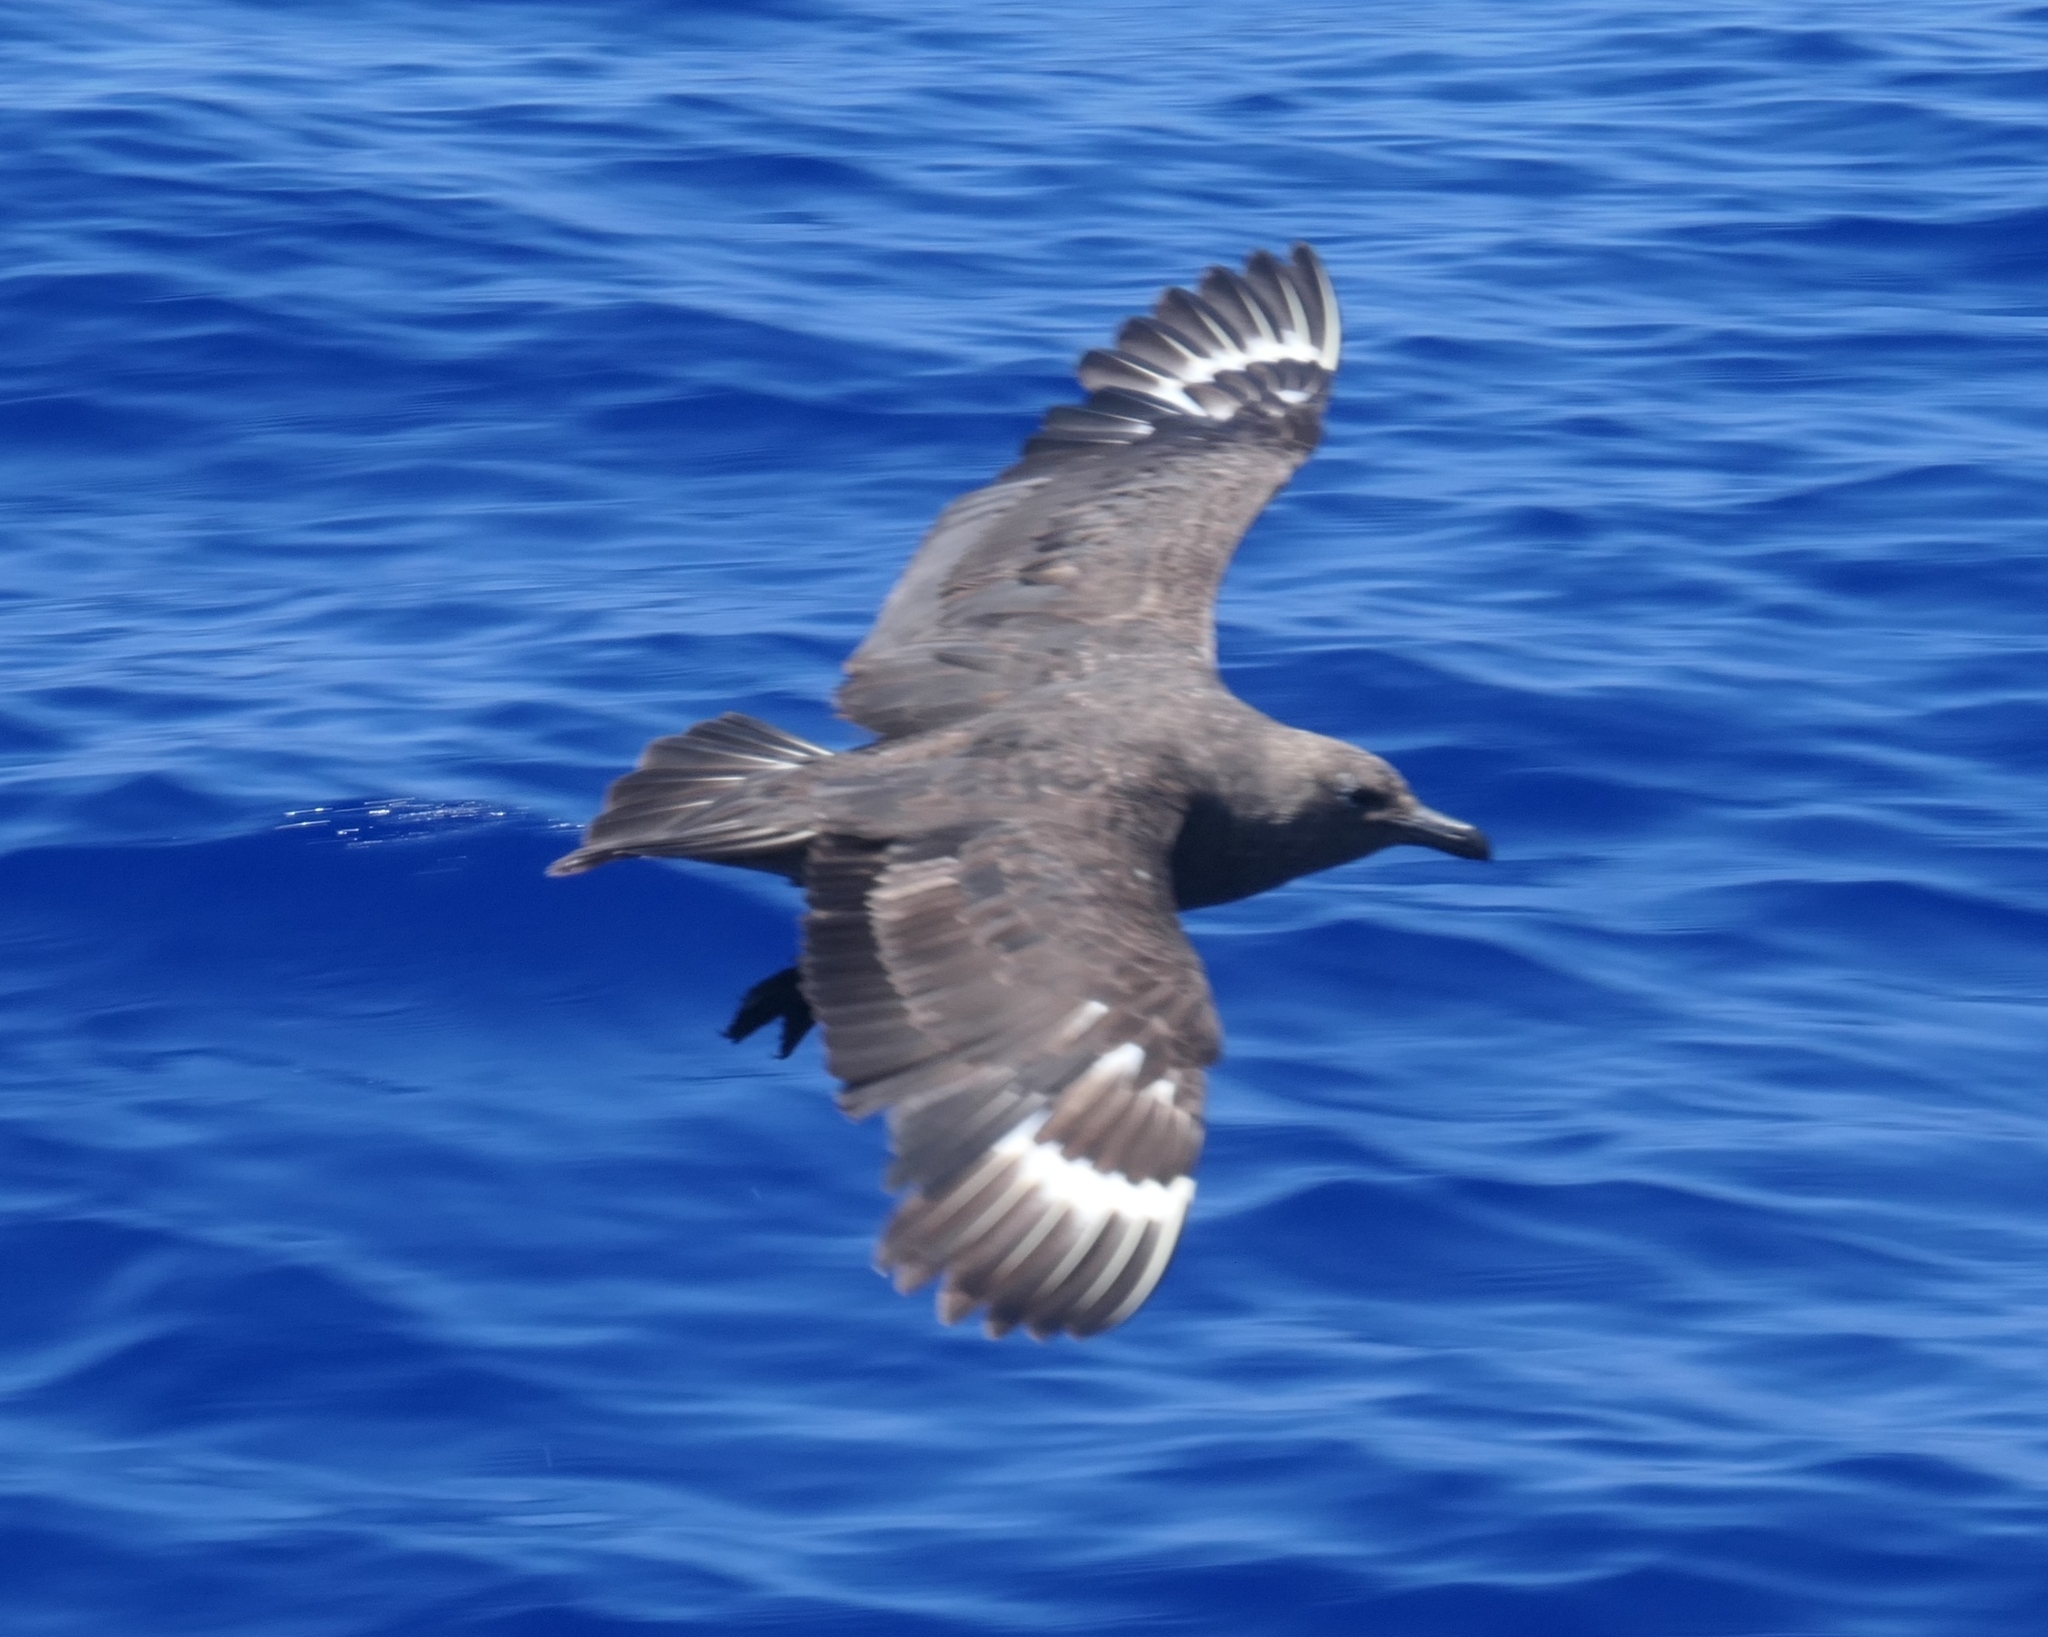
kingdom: Animalia
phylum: Chordata
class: Aves
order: Charadriiformes
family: Stercorariidae
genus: Stercorarius
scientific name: Stercorarius maccormicki
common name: South polar skua
